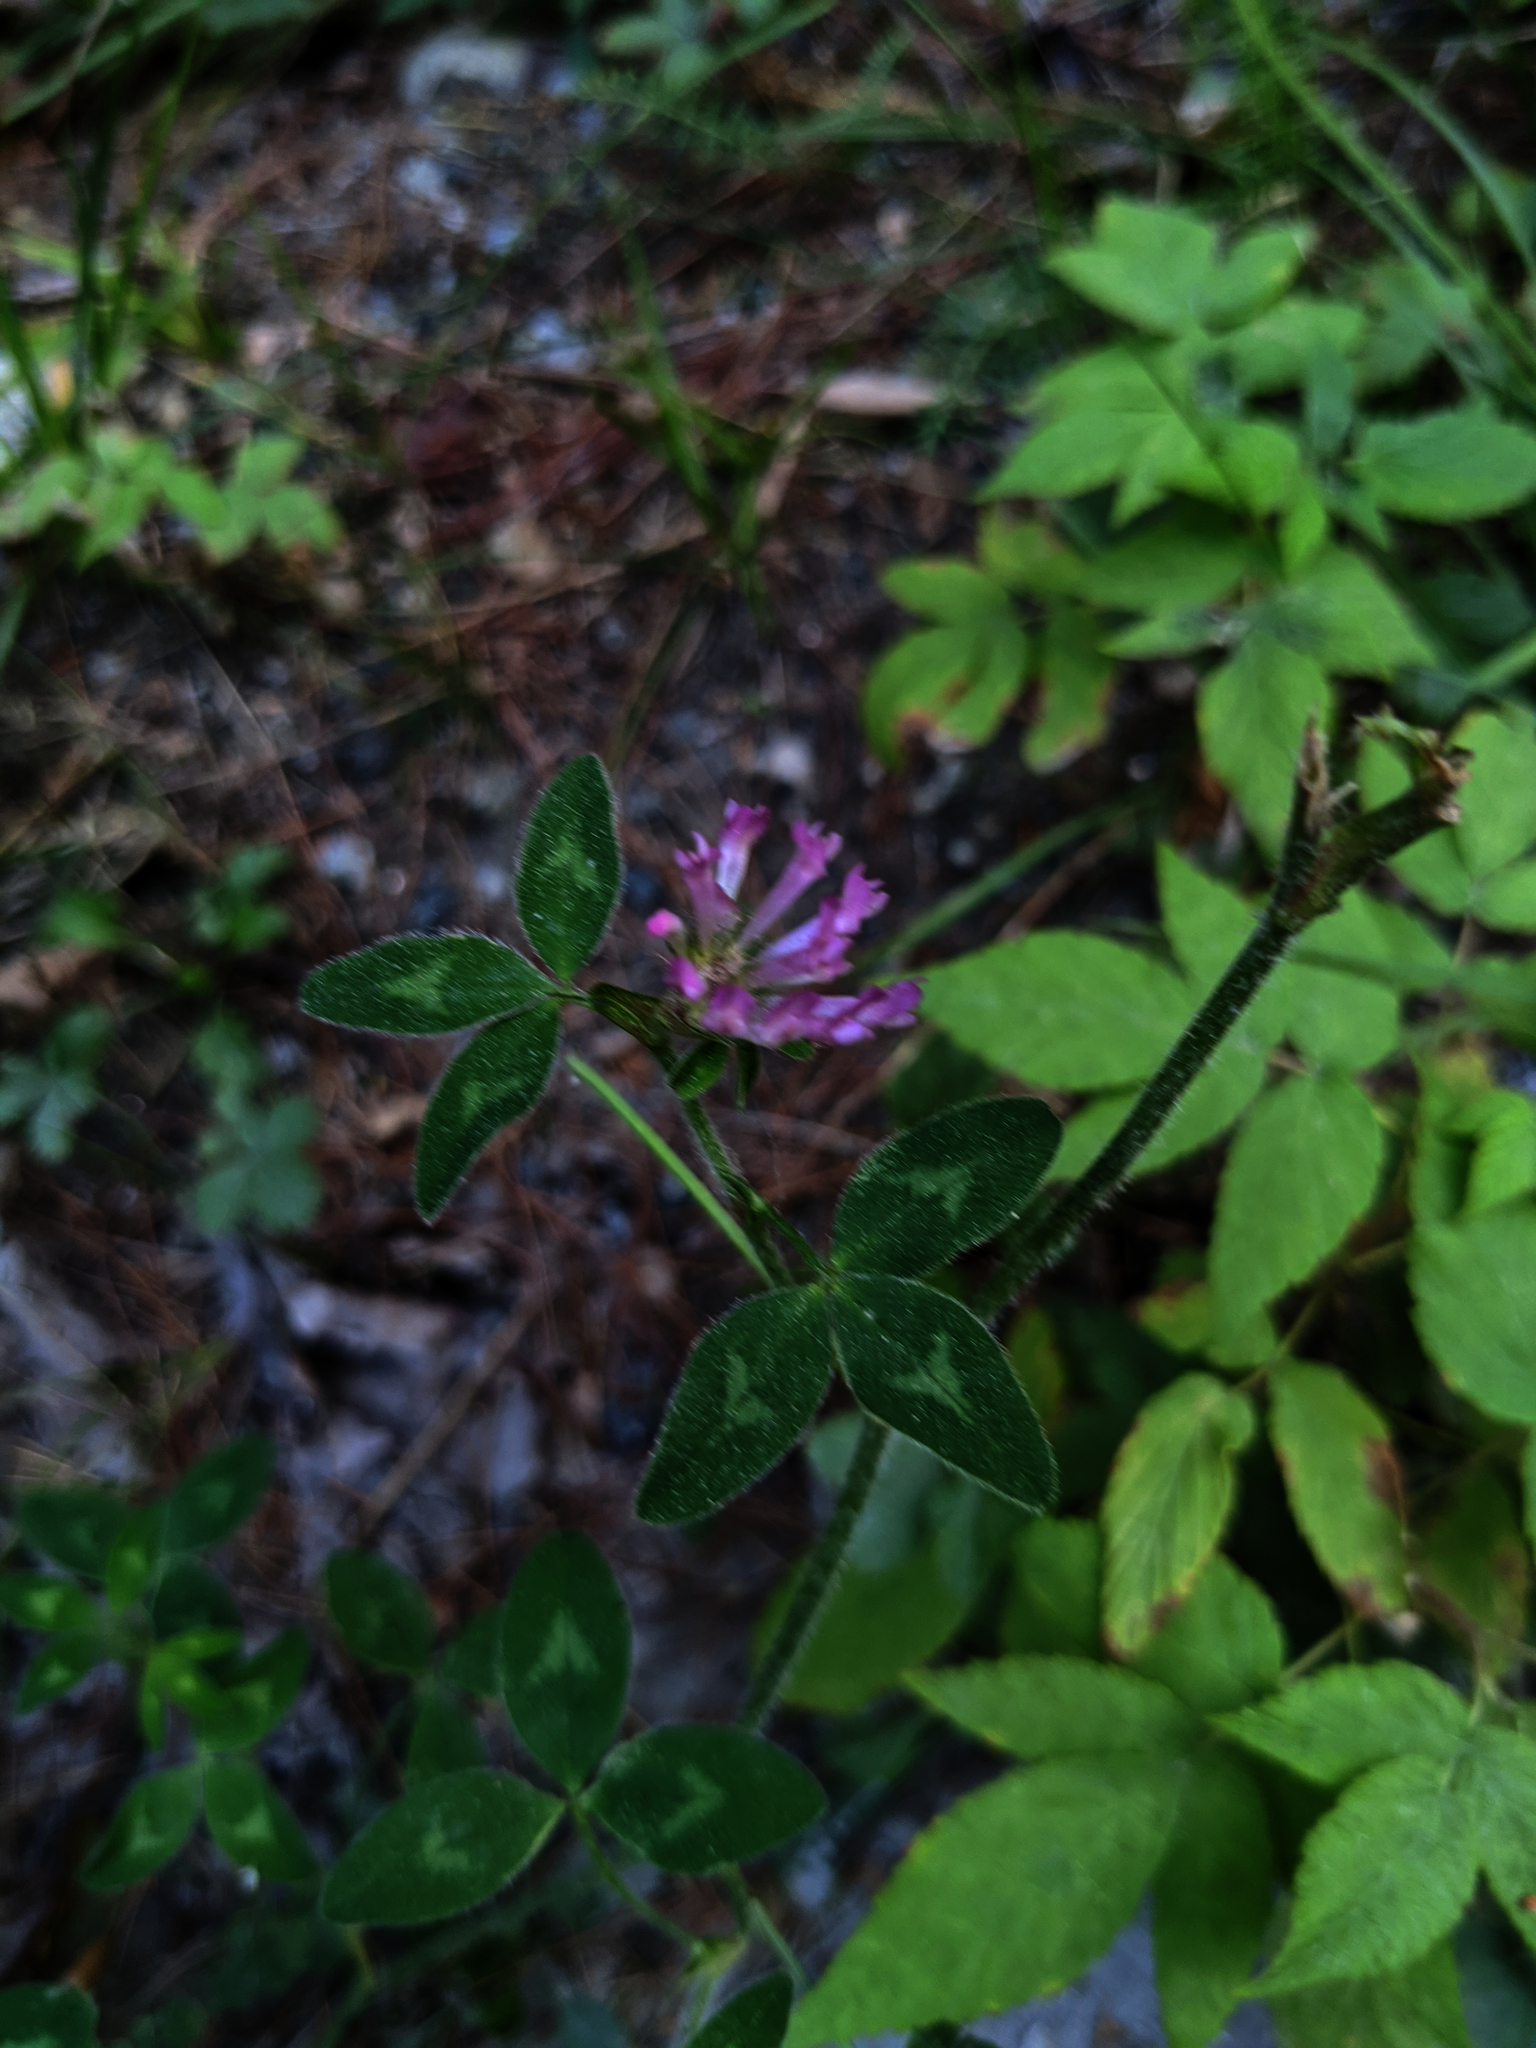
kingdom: Plantae
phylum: Tracheophyta
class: Magnoliopsida
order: Fabales
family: Fabaceae
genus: Trifolium
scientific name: Trifolium pratense
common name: Red clover
